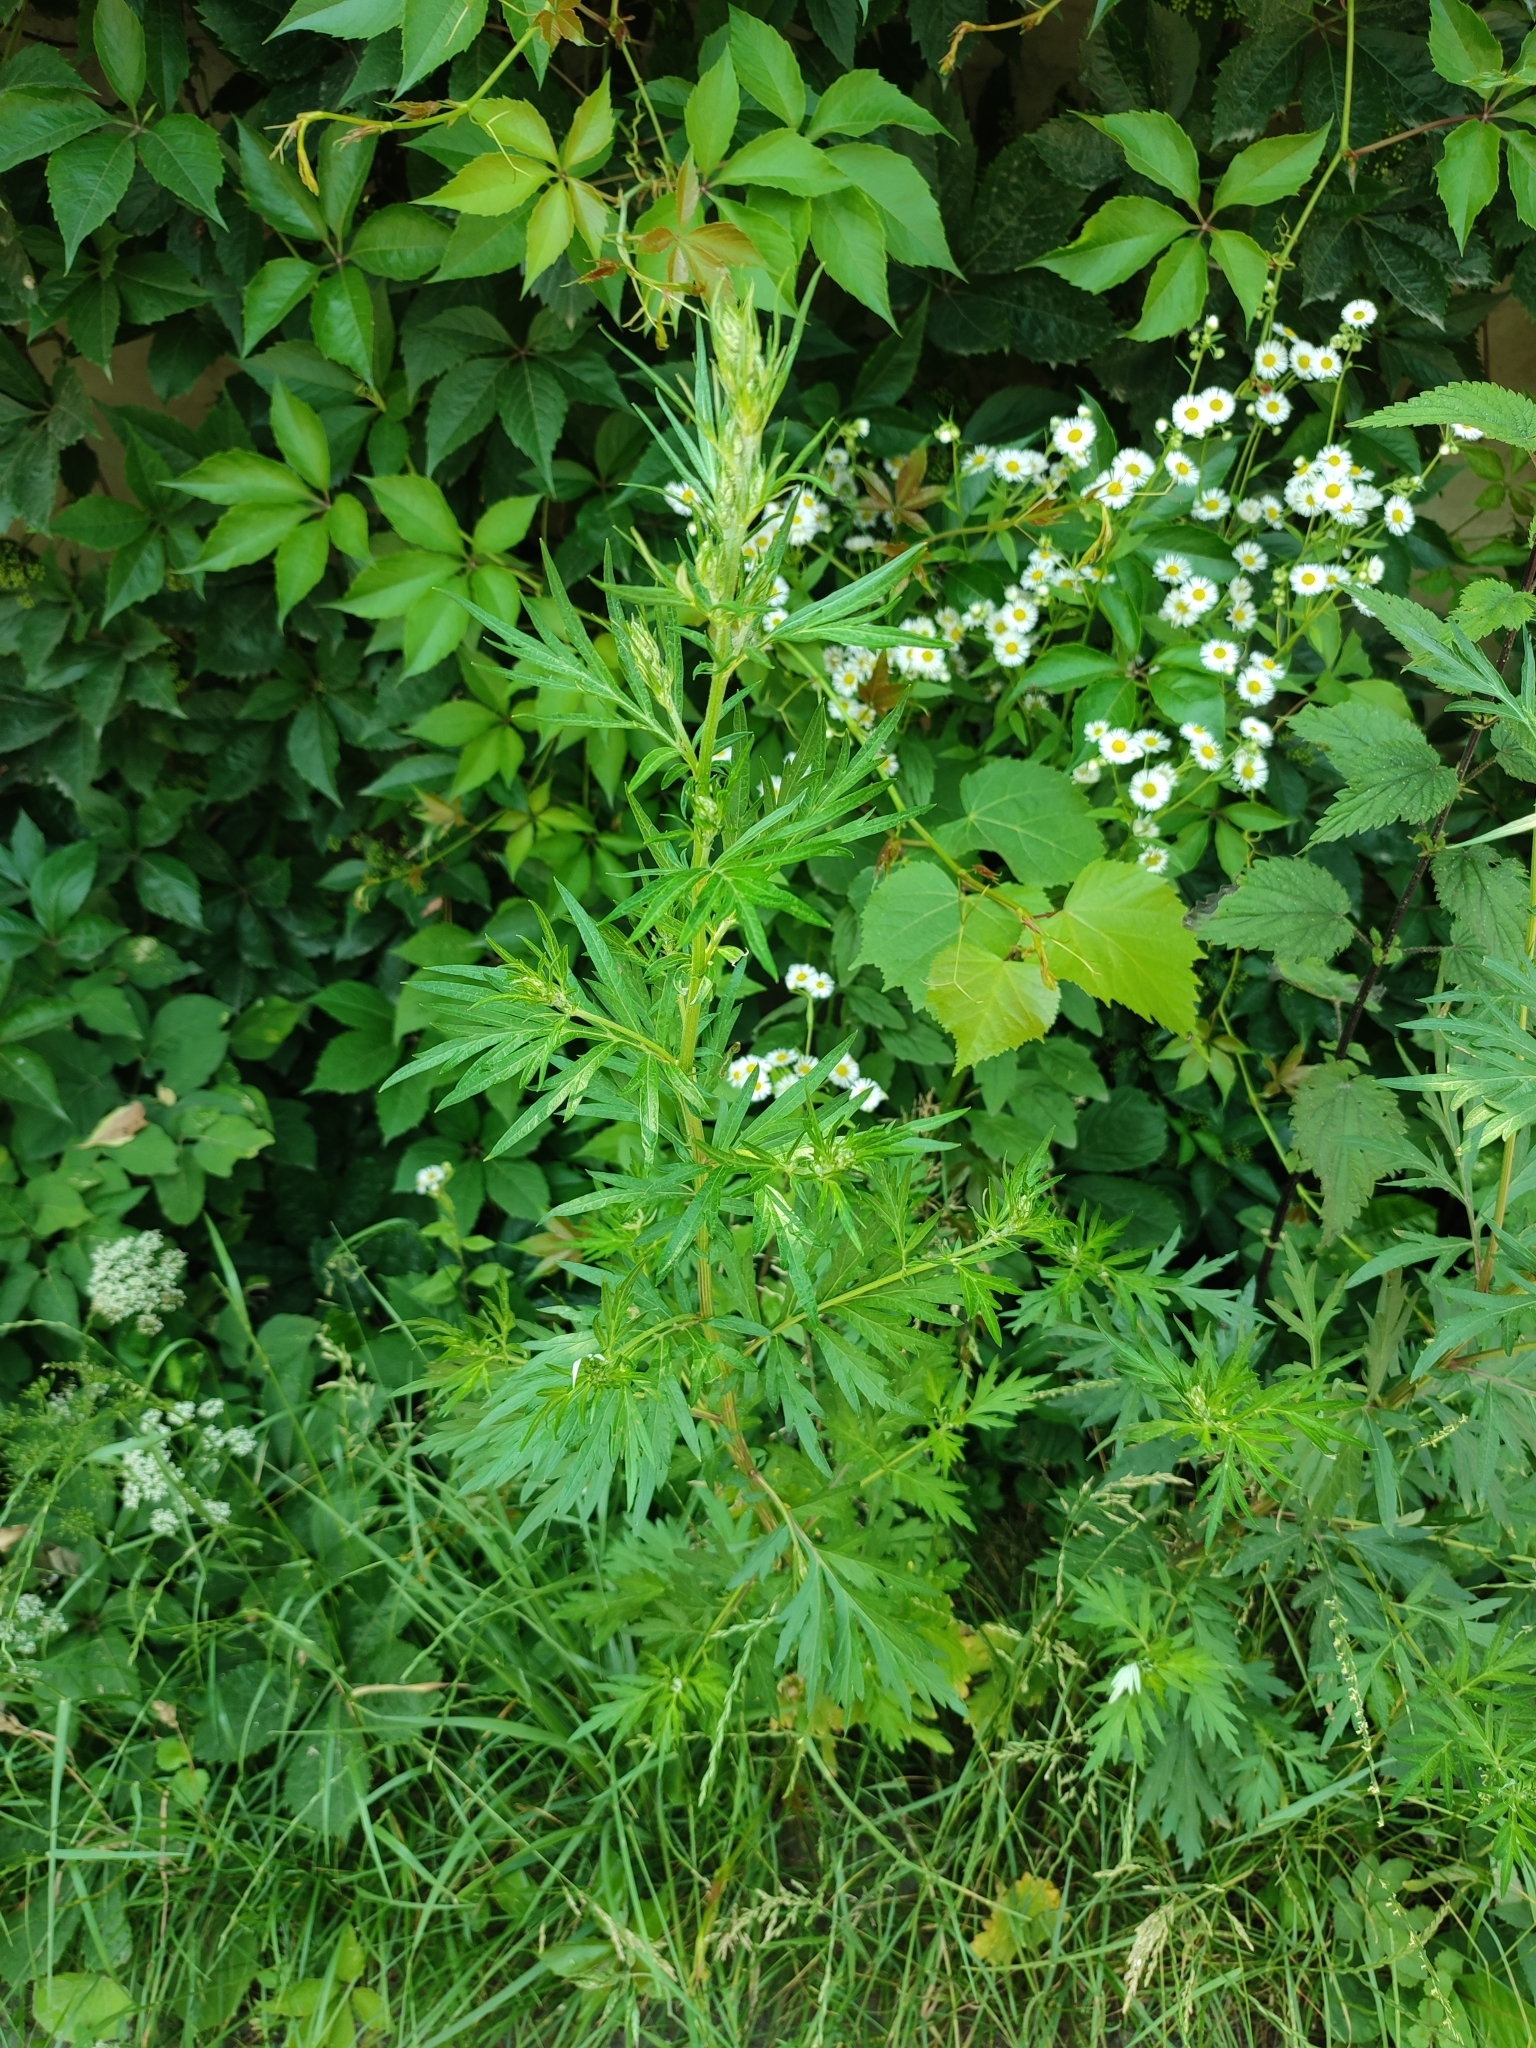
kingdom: Plantae
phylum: Tracheophyta
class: Magnoliopsida
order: Asterales
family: Asteraceae
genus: Artemisia
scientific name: Artemisia vulgaris
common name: Mugwort
